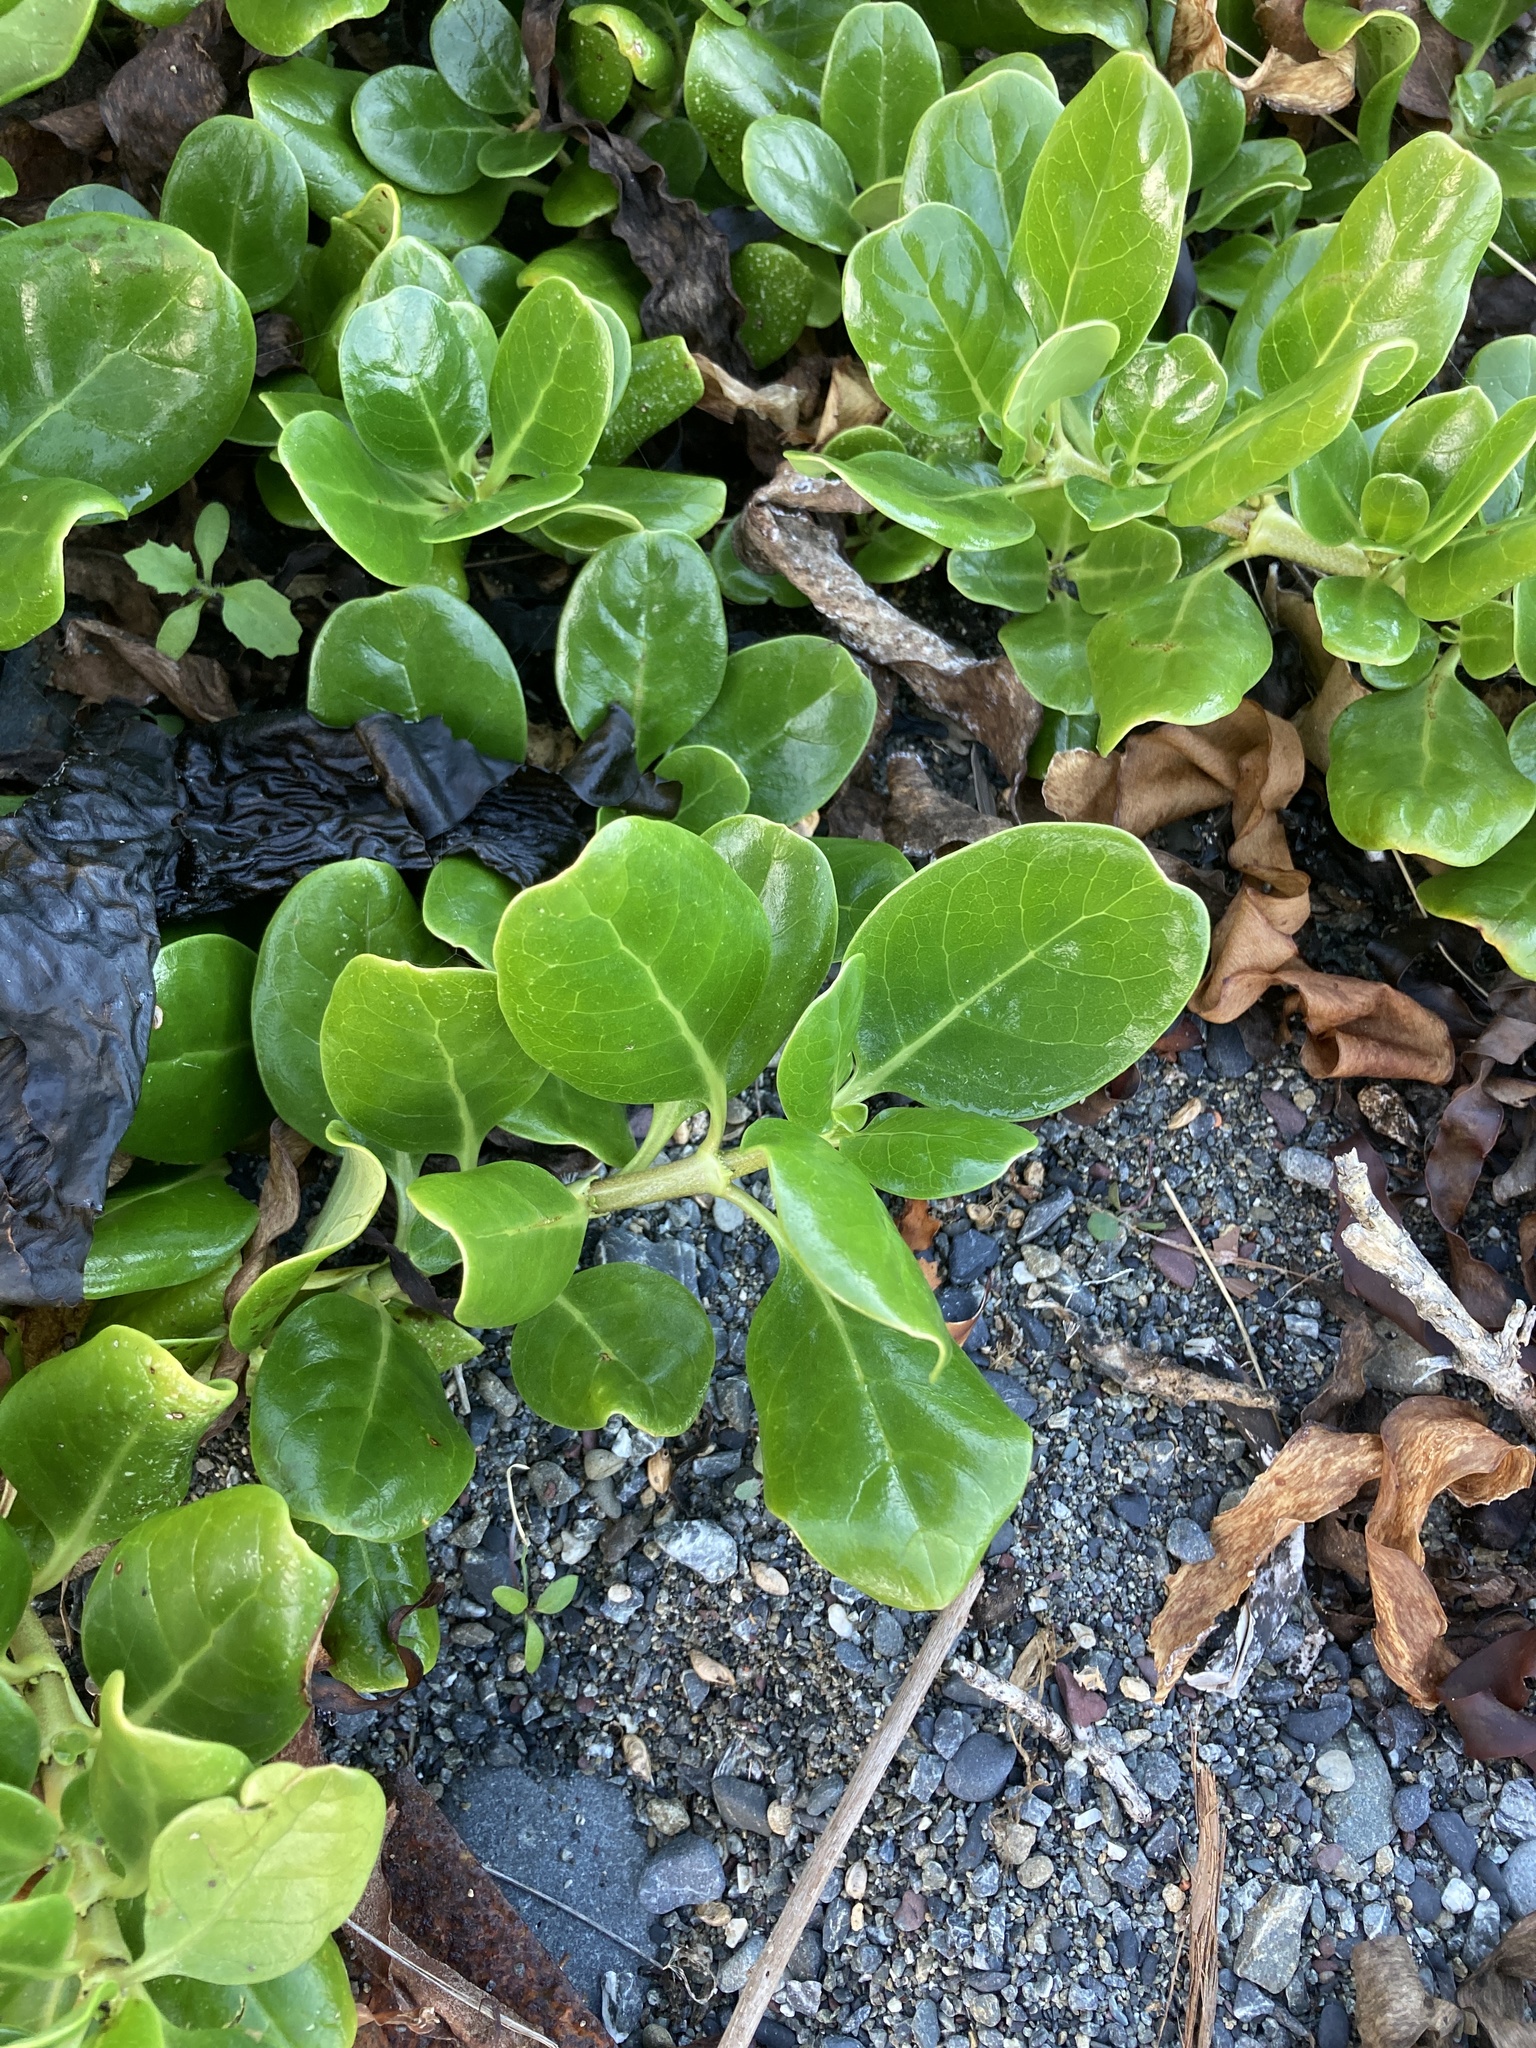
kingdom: Plantae
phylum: Tracheophyta
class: Magnoliopsida
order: Gentianales
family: Rubiaceae
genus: Coprosma
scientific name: Coprosma repens
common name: Tree bedstraw
